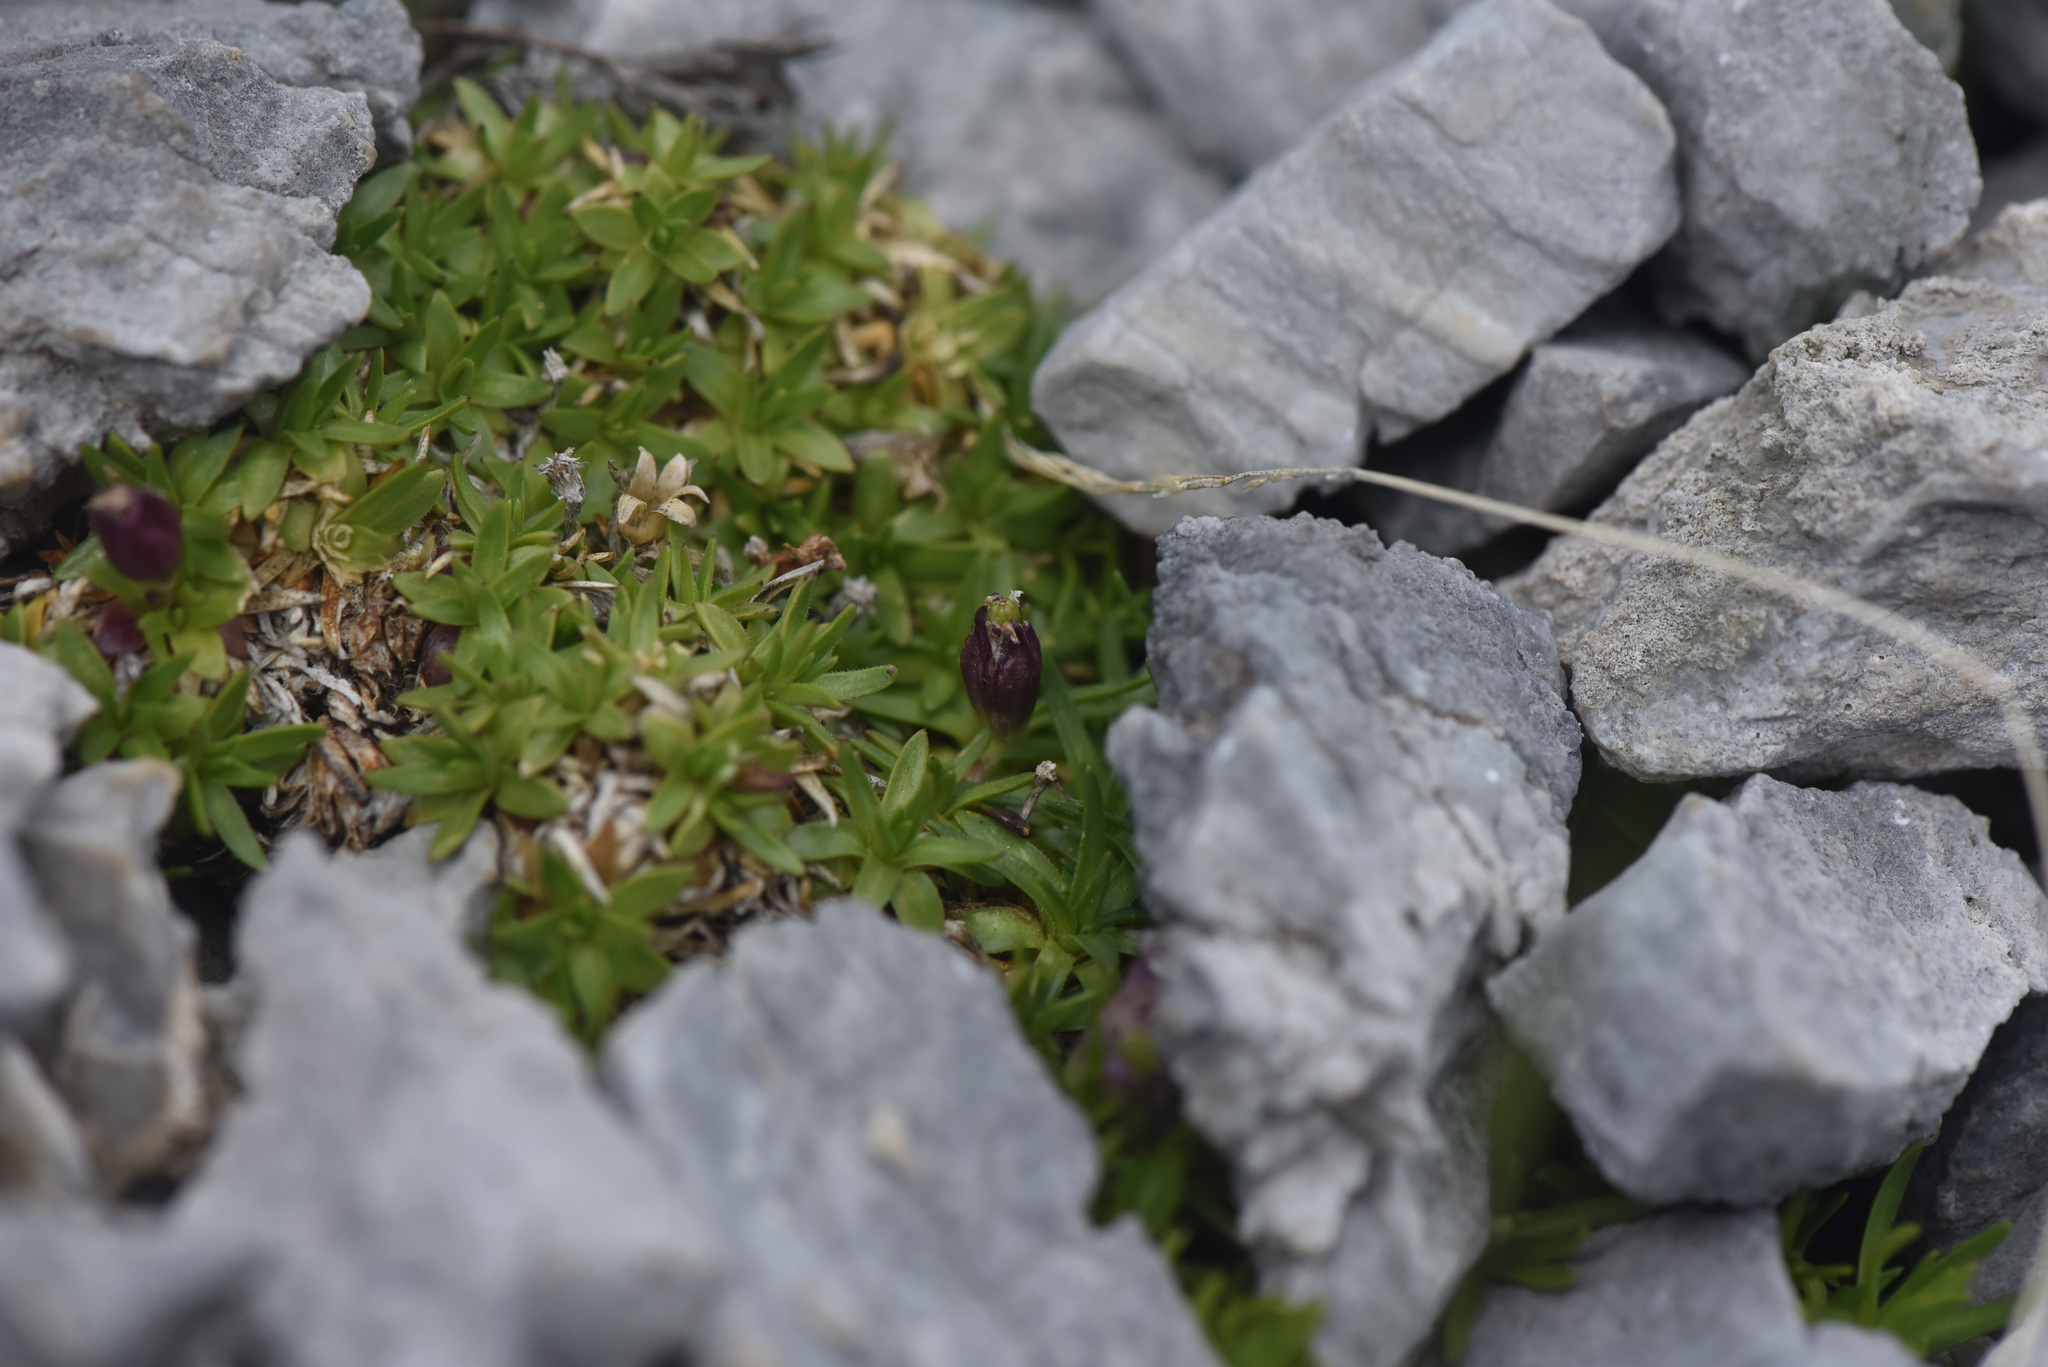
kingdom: Plantae
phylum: Tracheophyta
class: Magnoliopsida
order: Caryophyllales
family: Caryophyllaceae
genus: Silene
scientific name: Silene acaulis
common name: Moss campion
